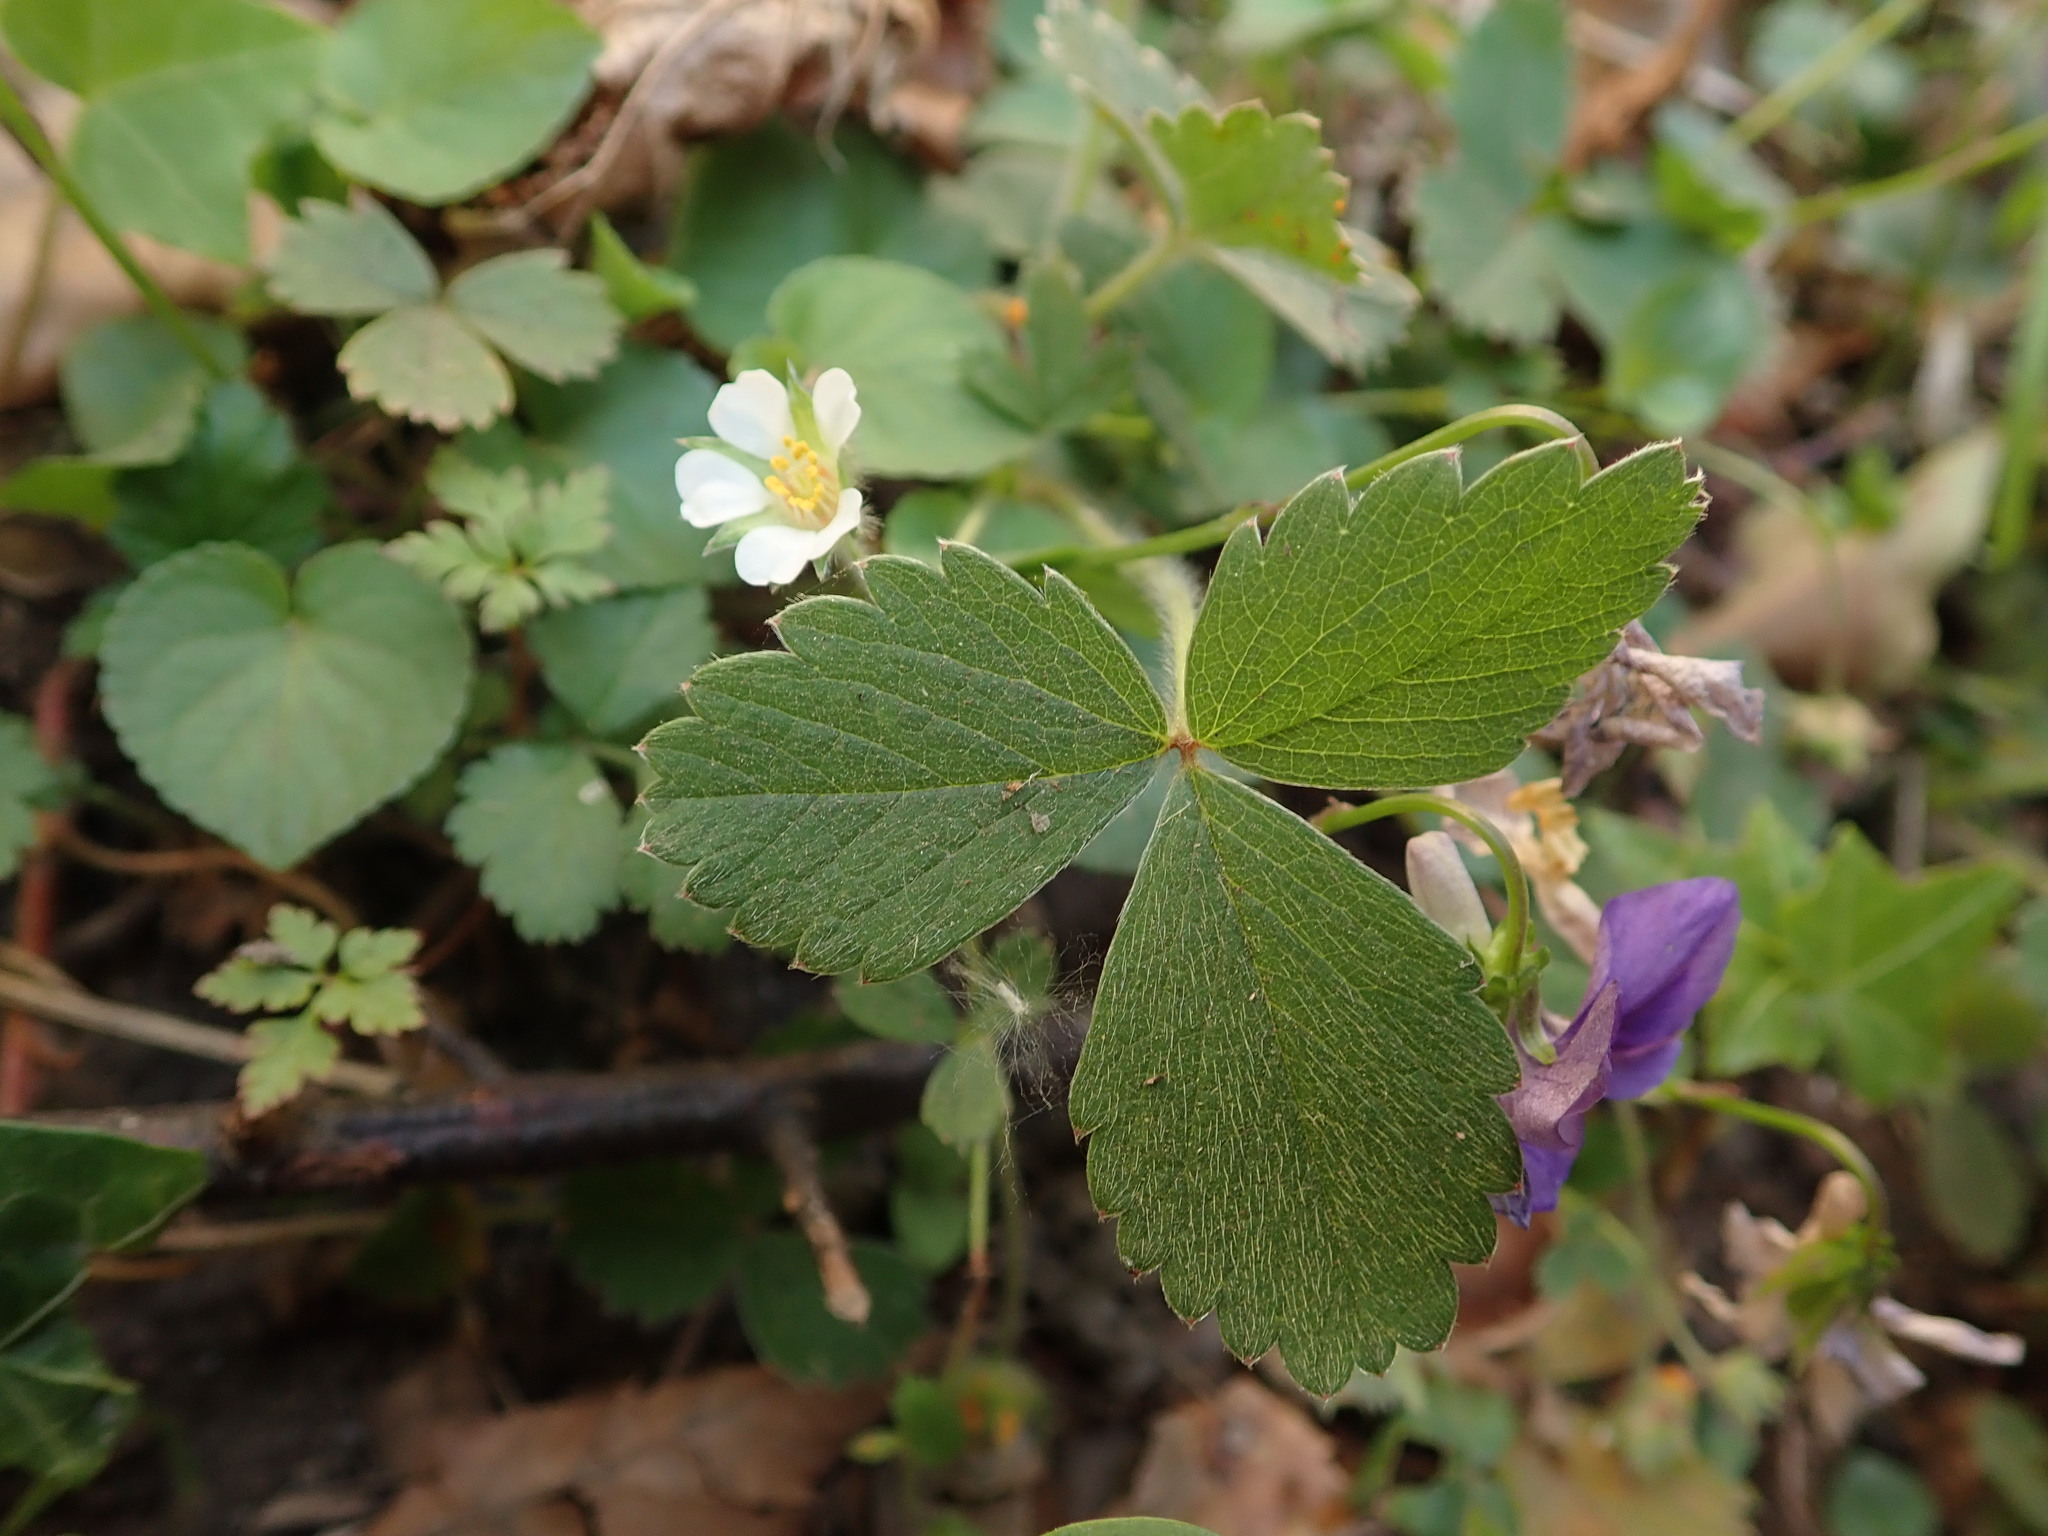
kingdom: Plantae
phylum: Tracheophyta
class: Magnoliopsida
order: Rosales
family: Rosaceae
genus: Potentilla
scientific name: Potentilla sterilis
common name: Barren strawberry
